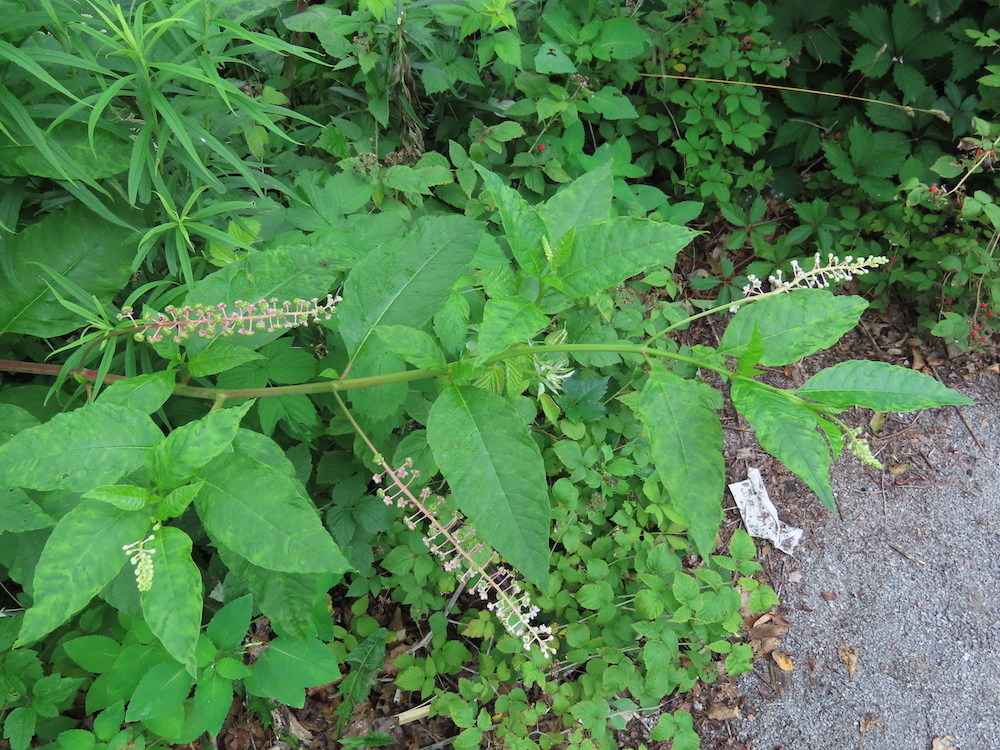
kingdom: Plantae
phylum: Tracheophyta
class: Magnoliopsida
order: Caryophyllales
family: Phytolaccaceae
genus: Phytolacca
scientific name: Phytolacca americana
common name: American pokeweed
